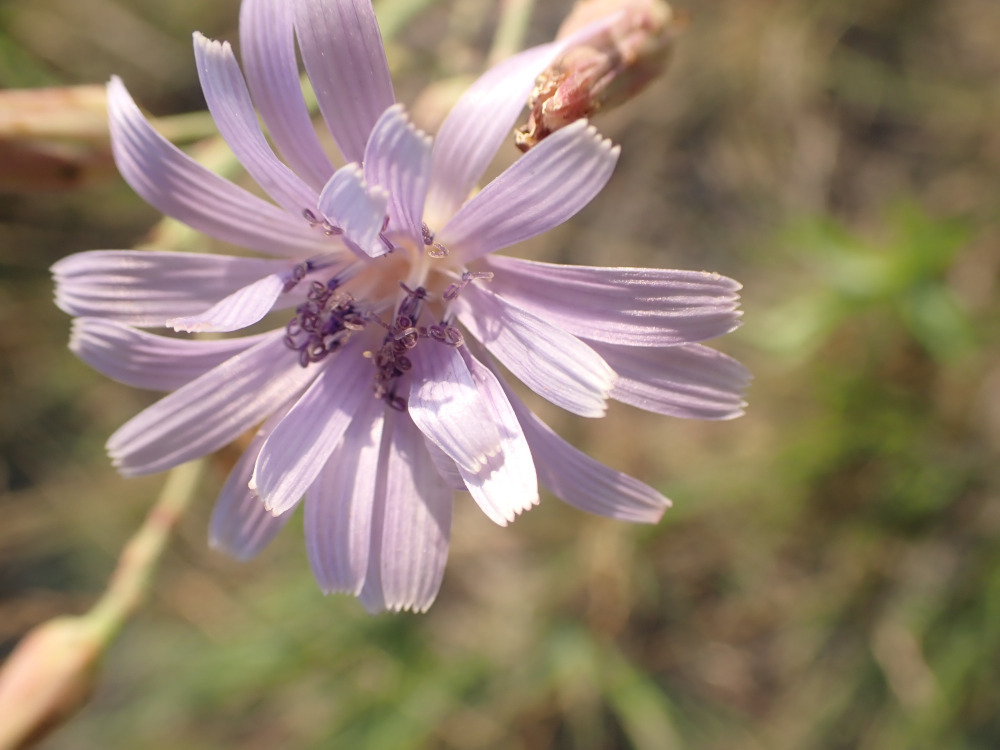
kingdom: Plantae
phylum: Tracheophyta
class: Magnoliopsida
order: Asterales
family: Asteraceae
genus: Lactuca
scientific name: Lactuca pulchella
